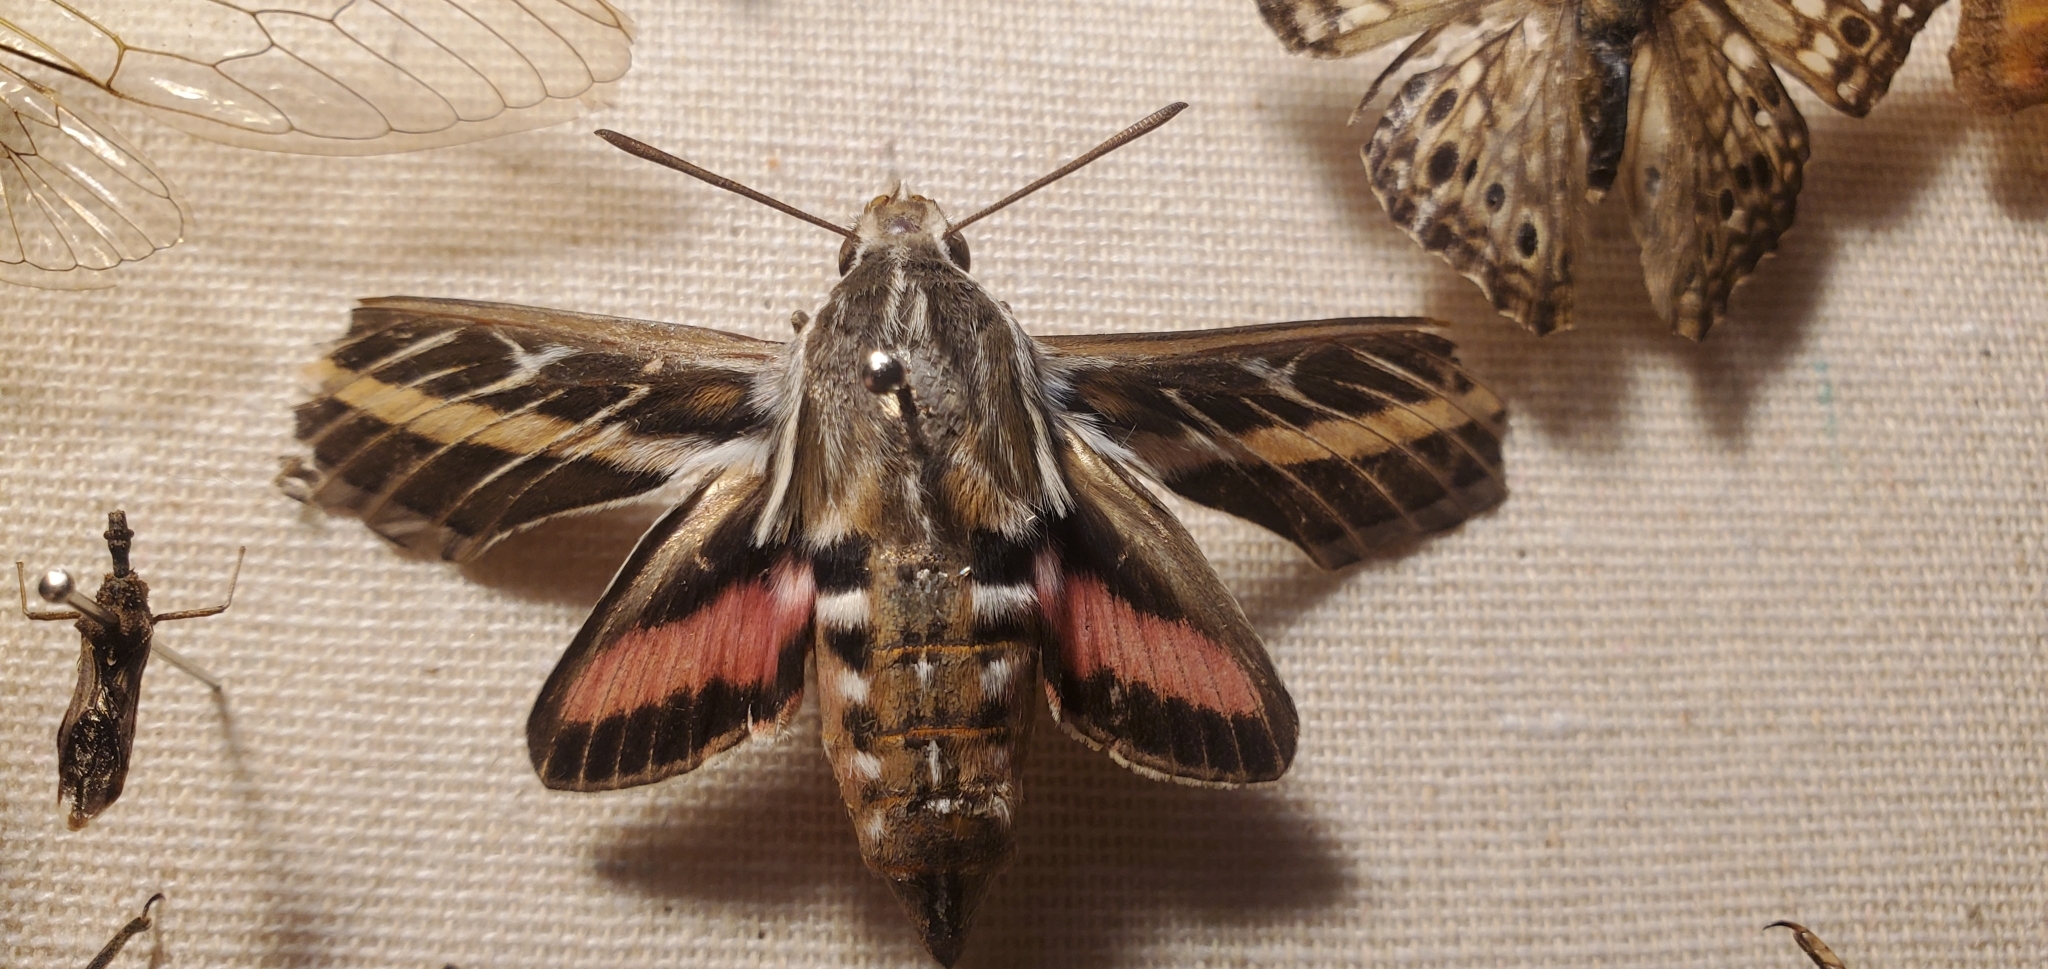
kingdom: Animalia
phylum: Arthropoda
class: Insecta
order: Lepidoptera
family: Sphingidae
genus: Hyles
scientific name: Hyles lineata
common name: White-lined sphinx
